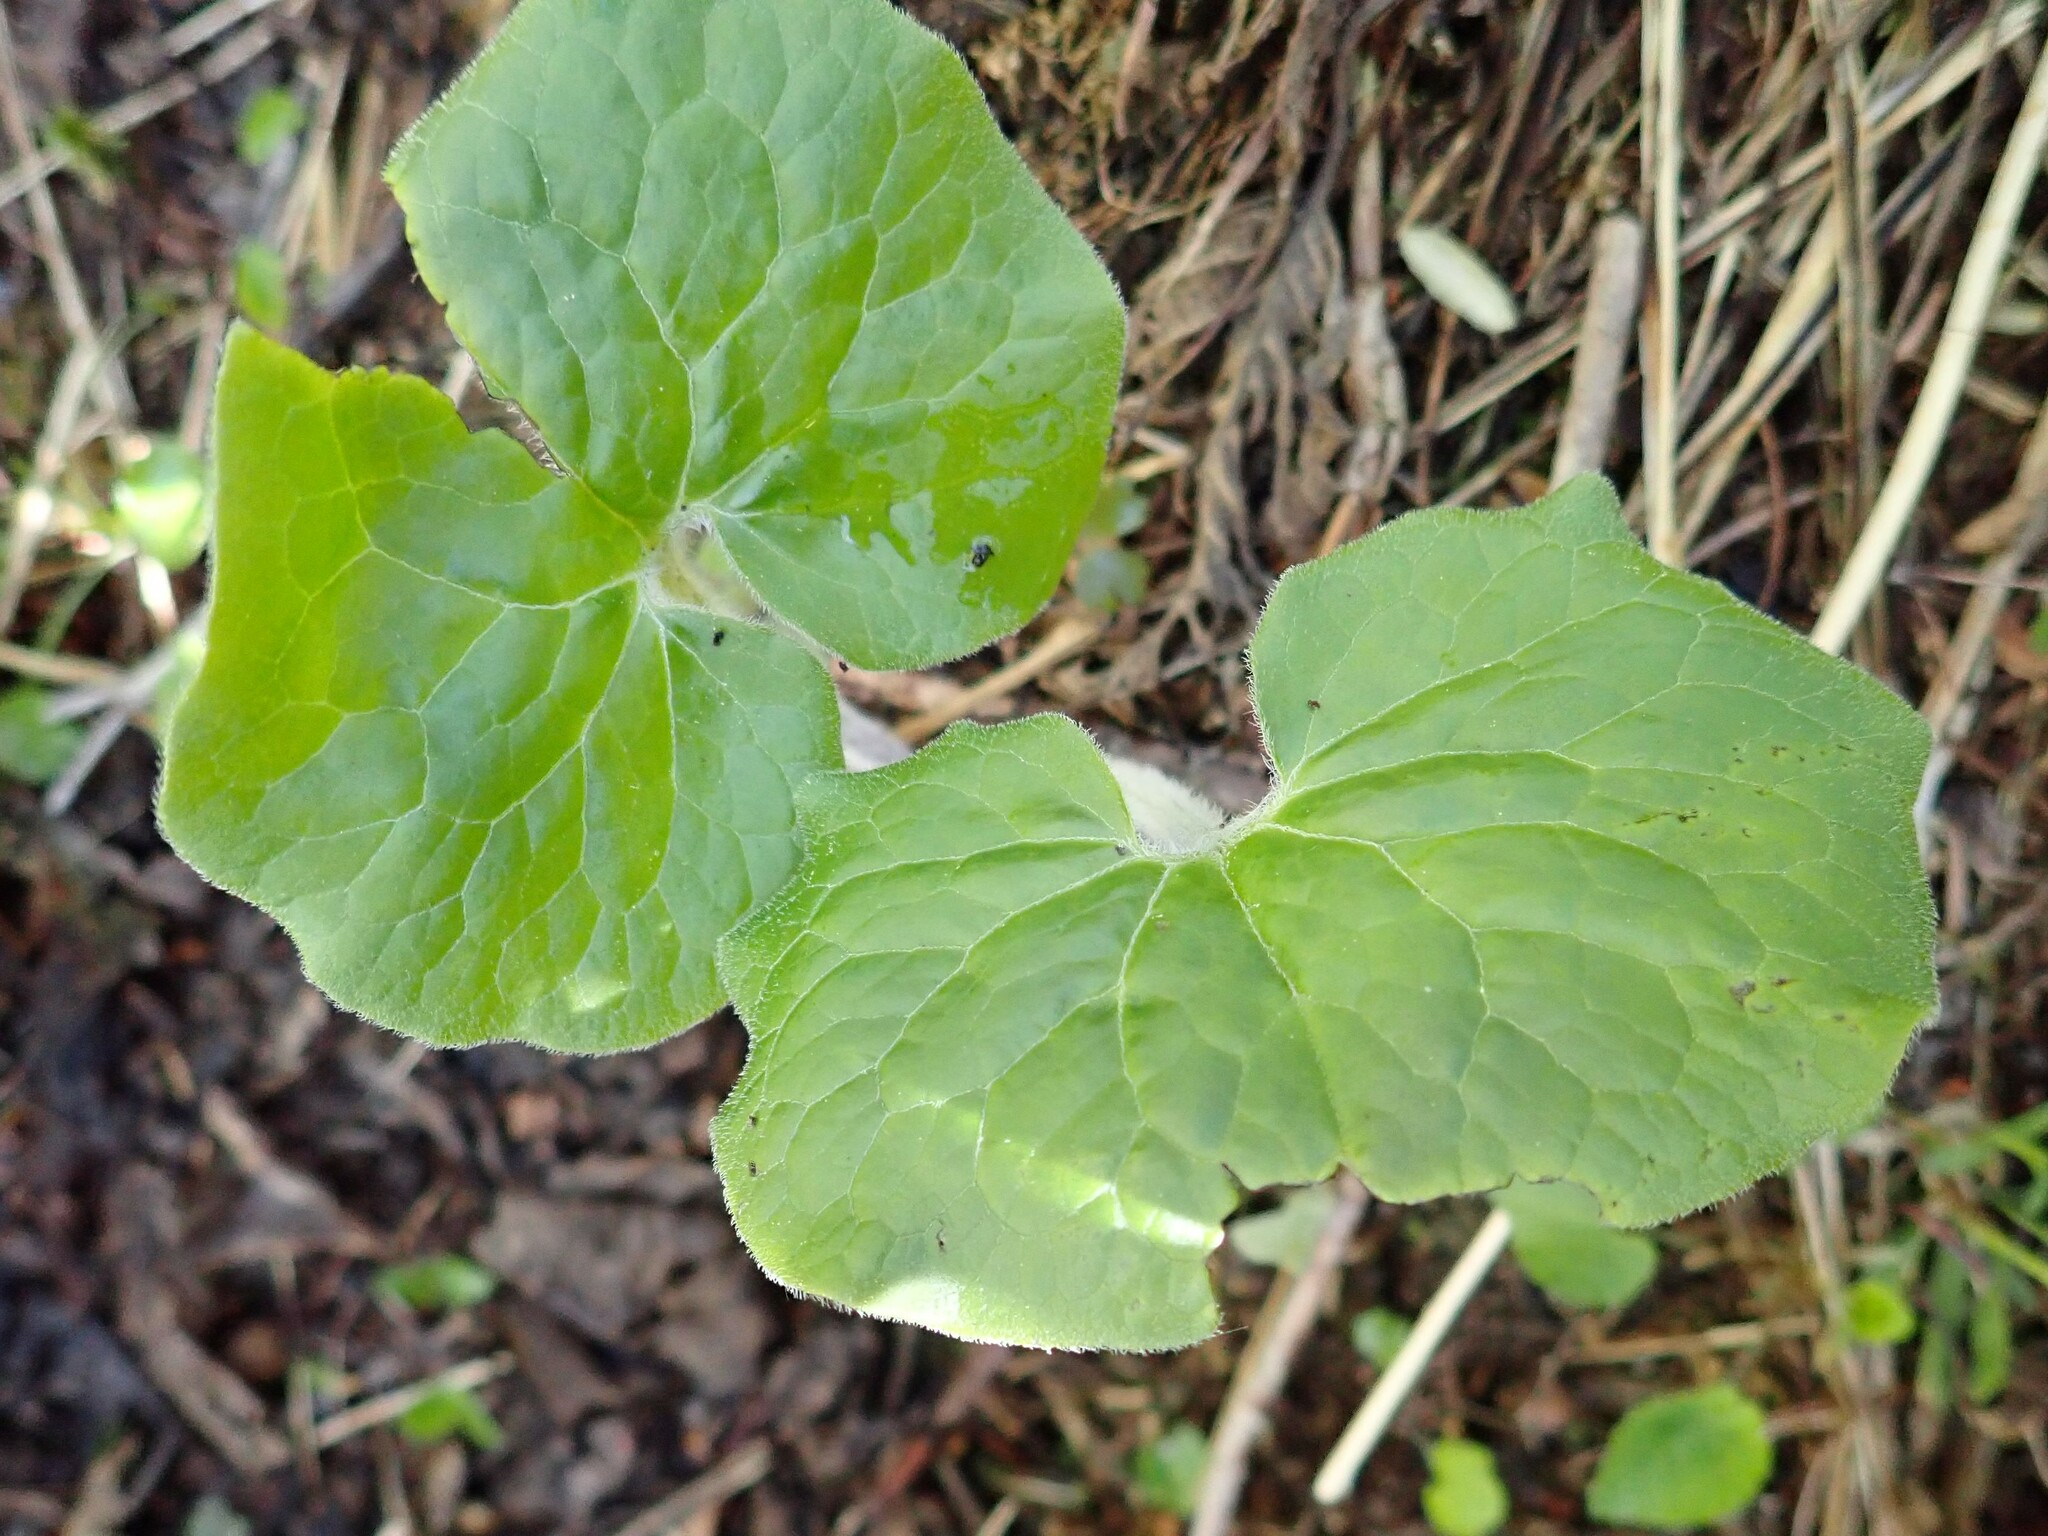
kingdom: Plantae
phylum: Tracheophyta
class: Magnoliopsida
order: Piperales
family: Aristolochiaceae
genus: Asarum
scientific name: Asarum canadense
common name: Wild ginger
